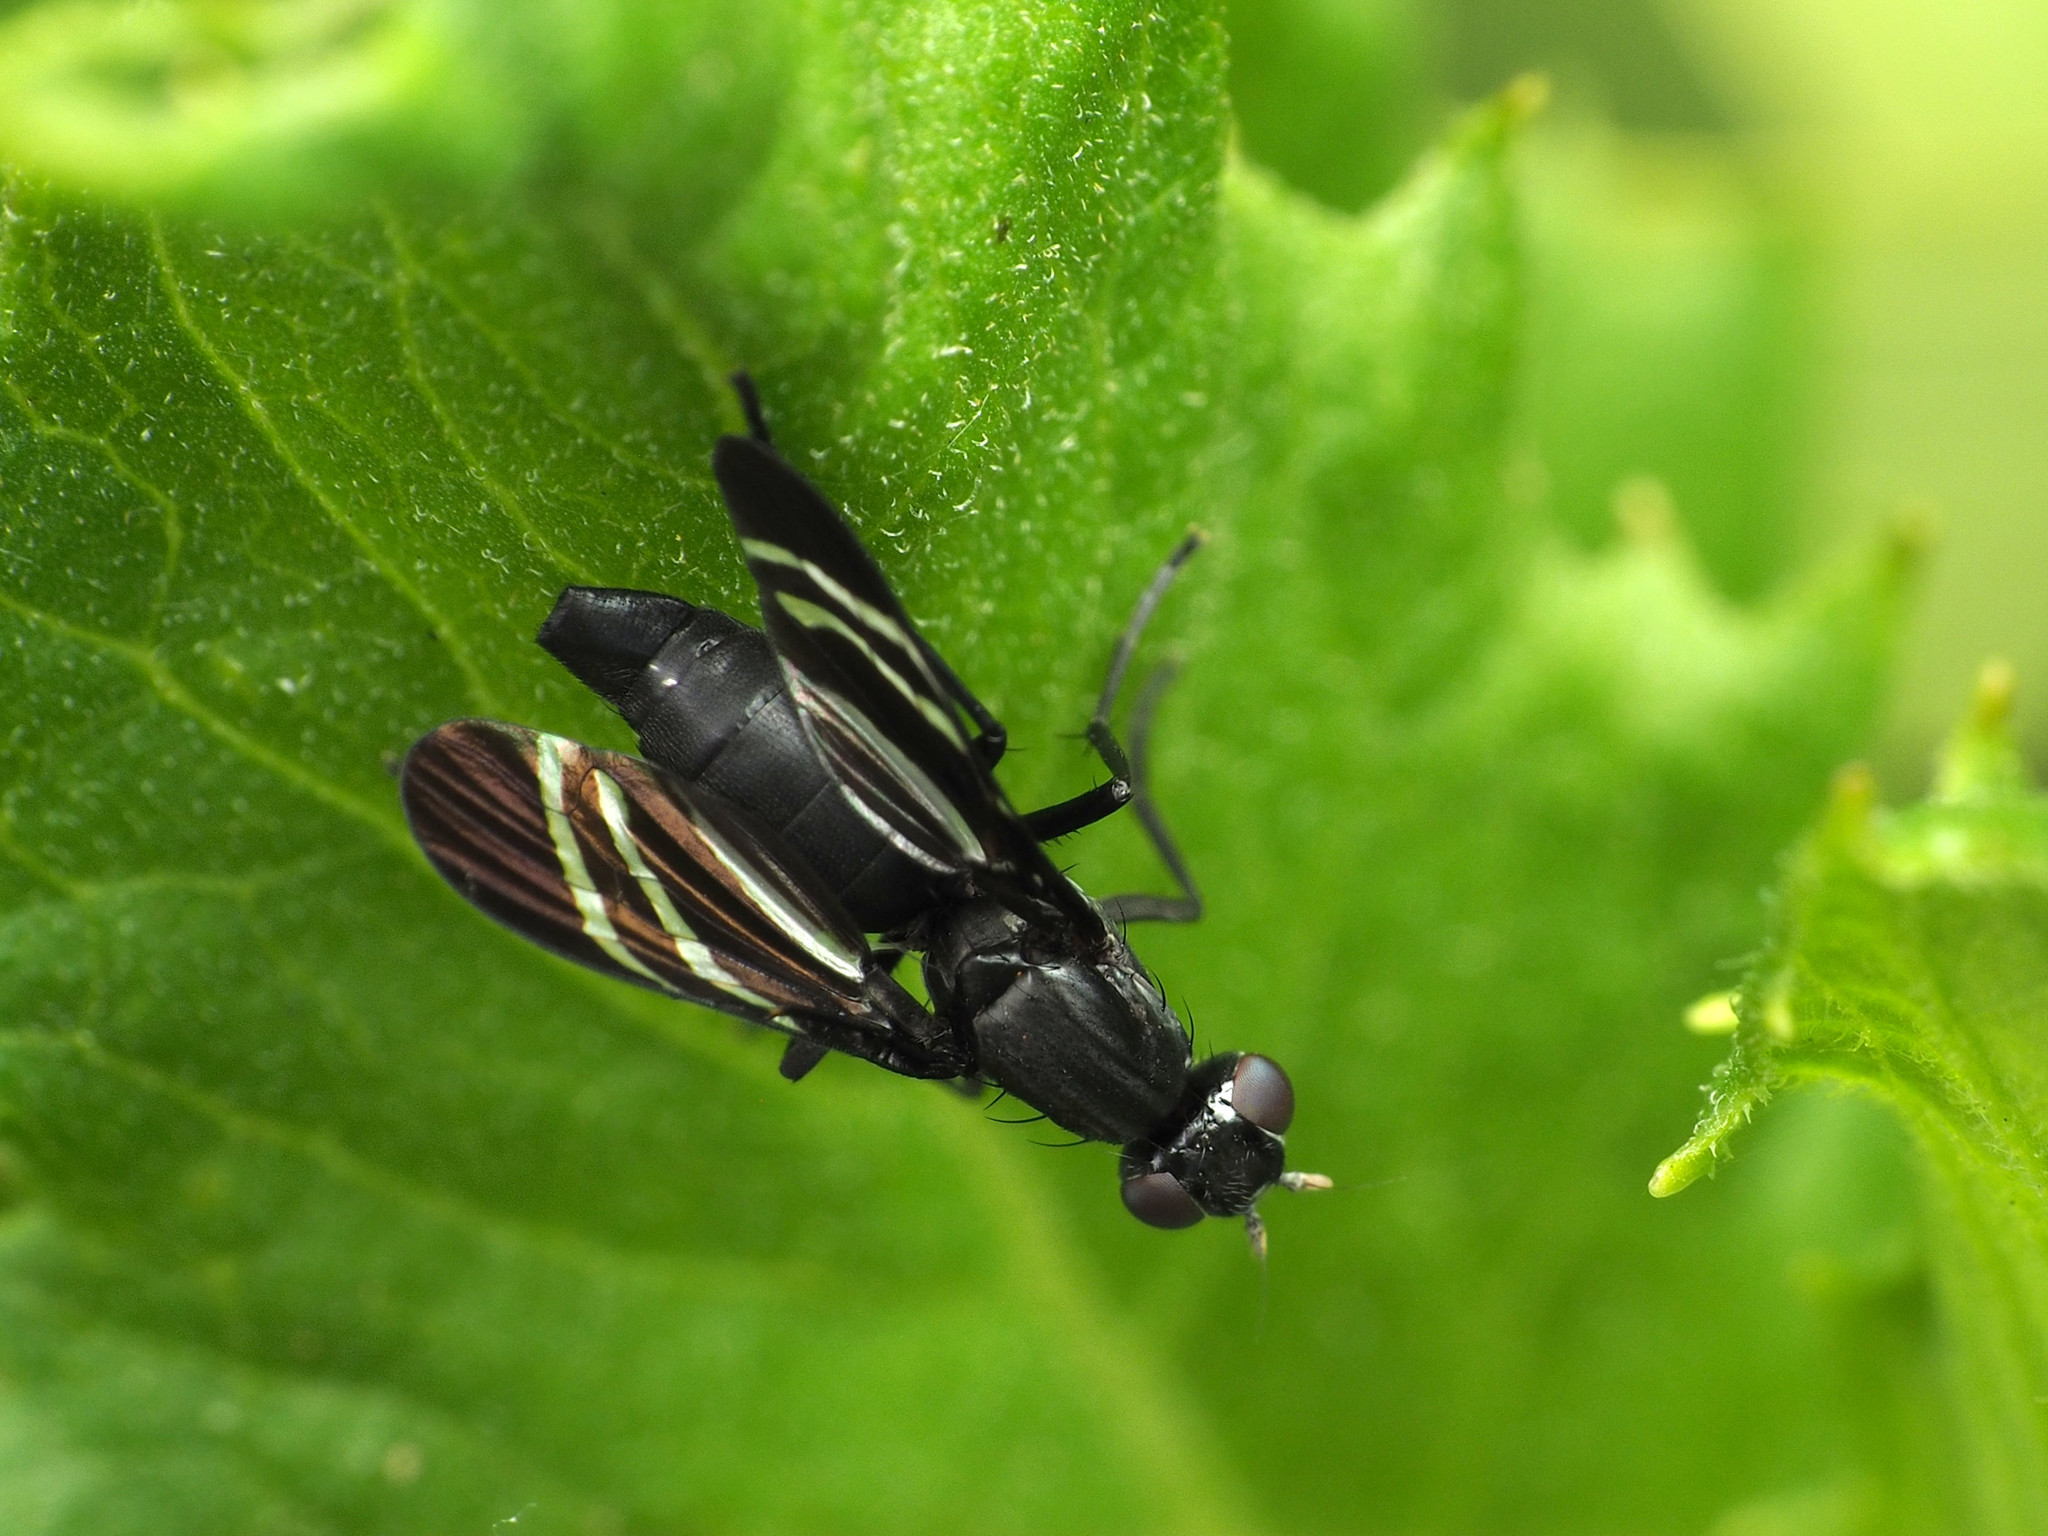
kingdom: Animalia
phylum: Arthropoda
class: Insecta
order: Diptera
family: Ulidiidae
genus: Tritoxa
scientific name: Tritoxa flexa
